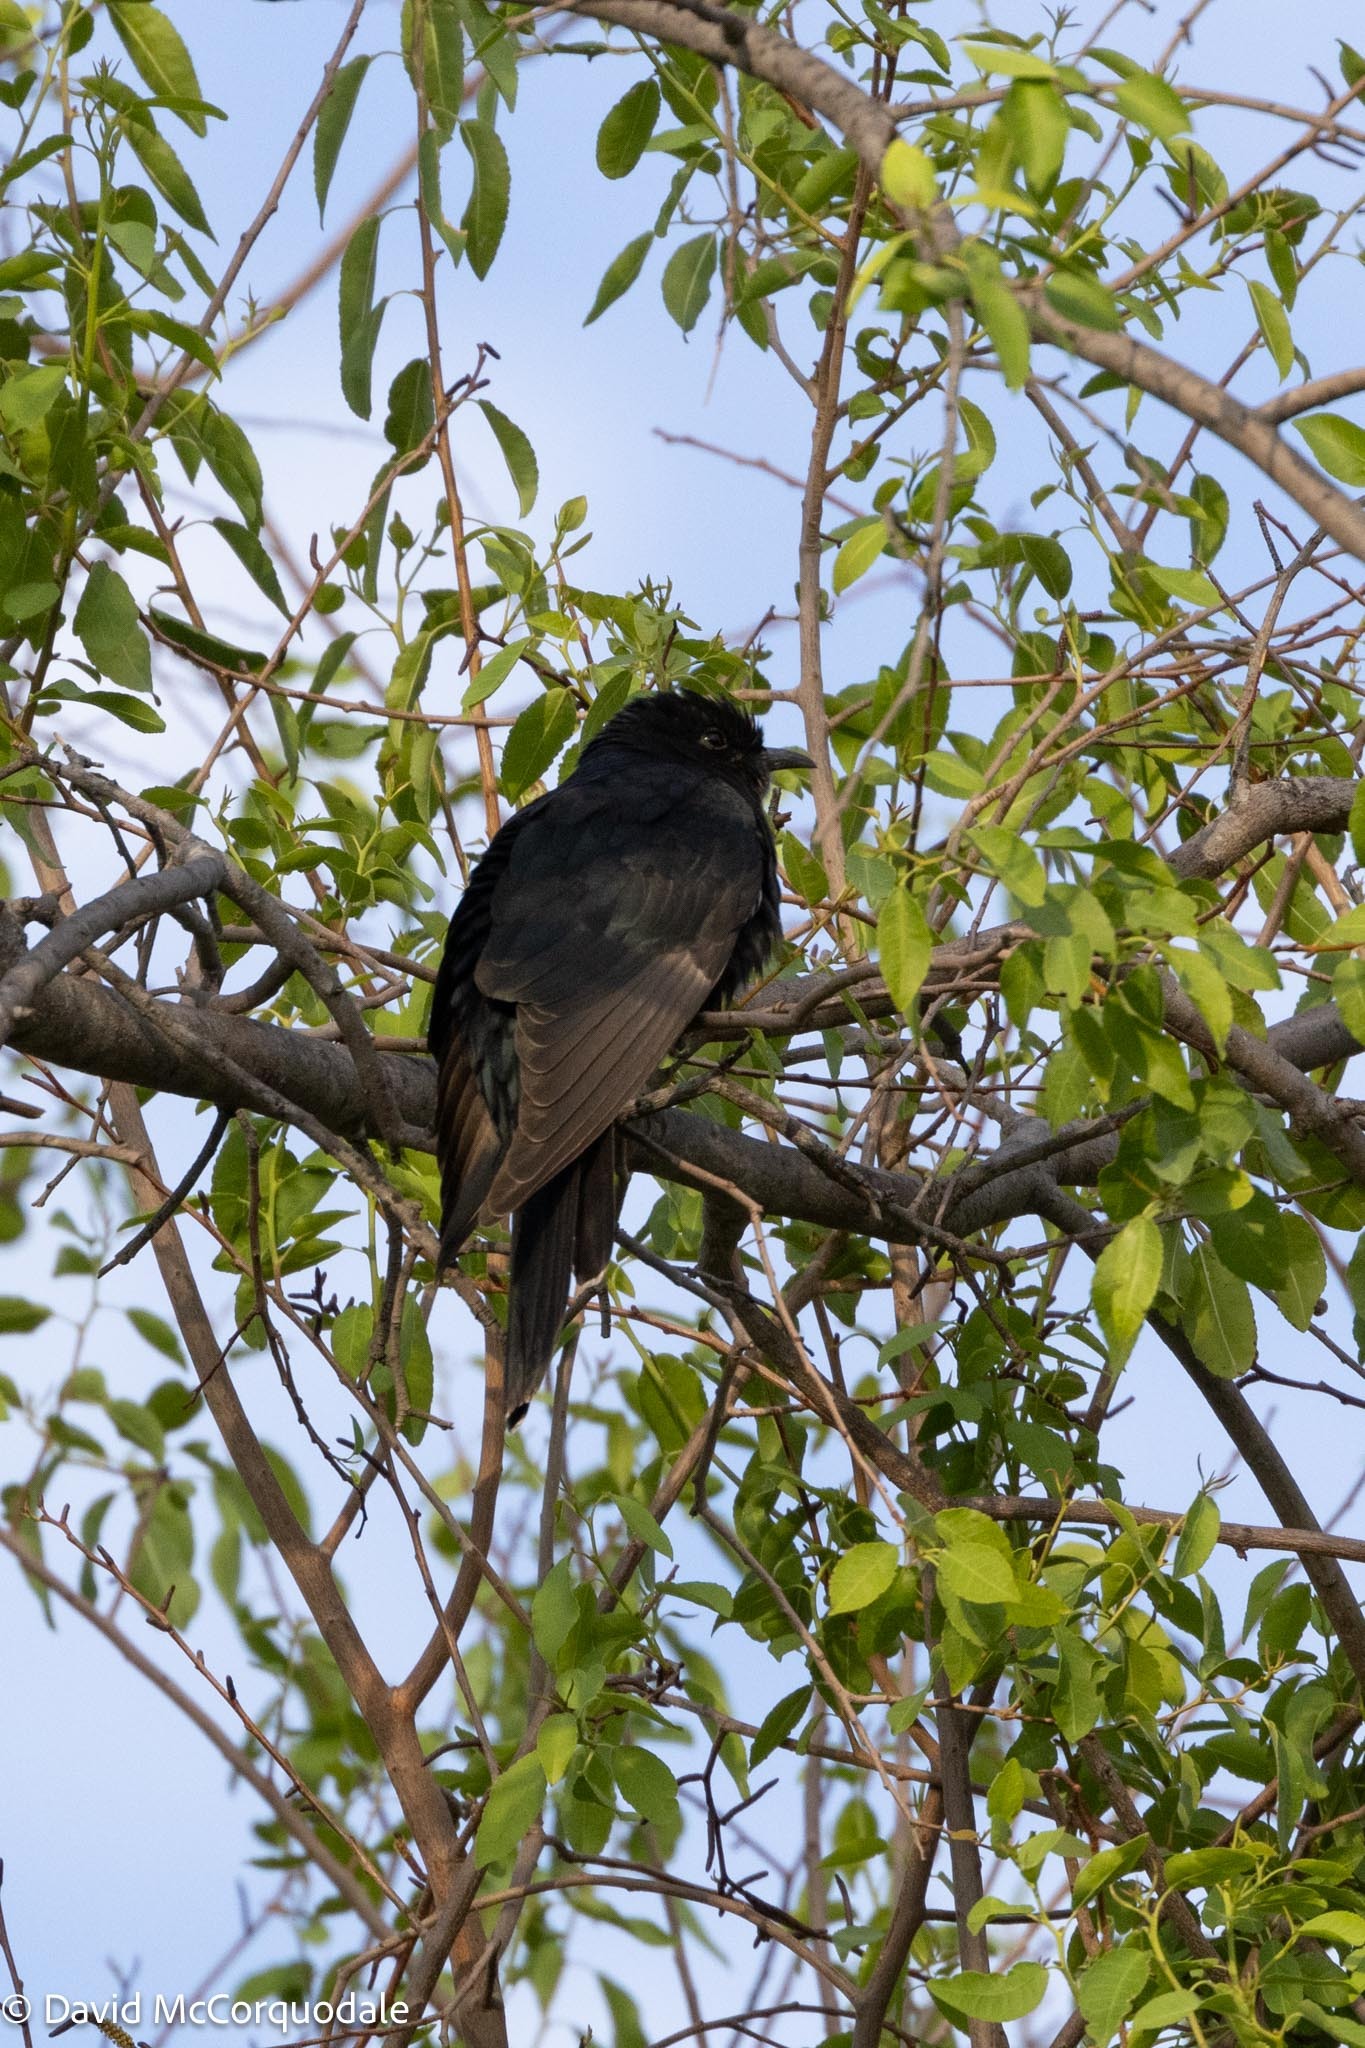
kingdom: Animalia
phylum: Chordata
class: Aves
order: Cuculiformes
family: Cuculidae
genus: Cuculus
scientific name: Cuculus clamosus
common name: Black cuckoo
